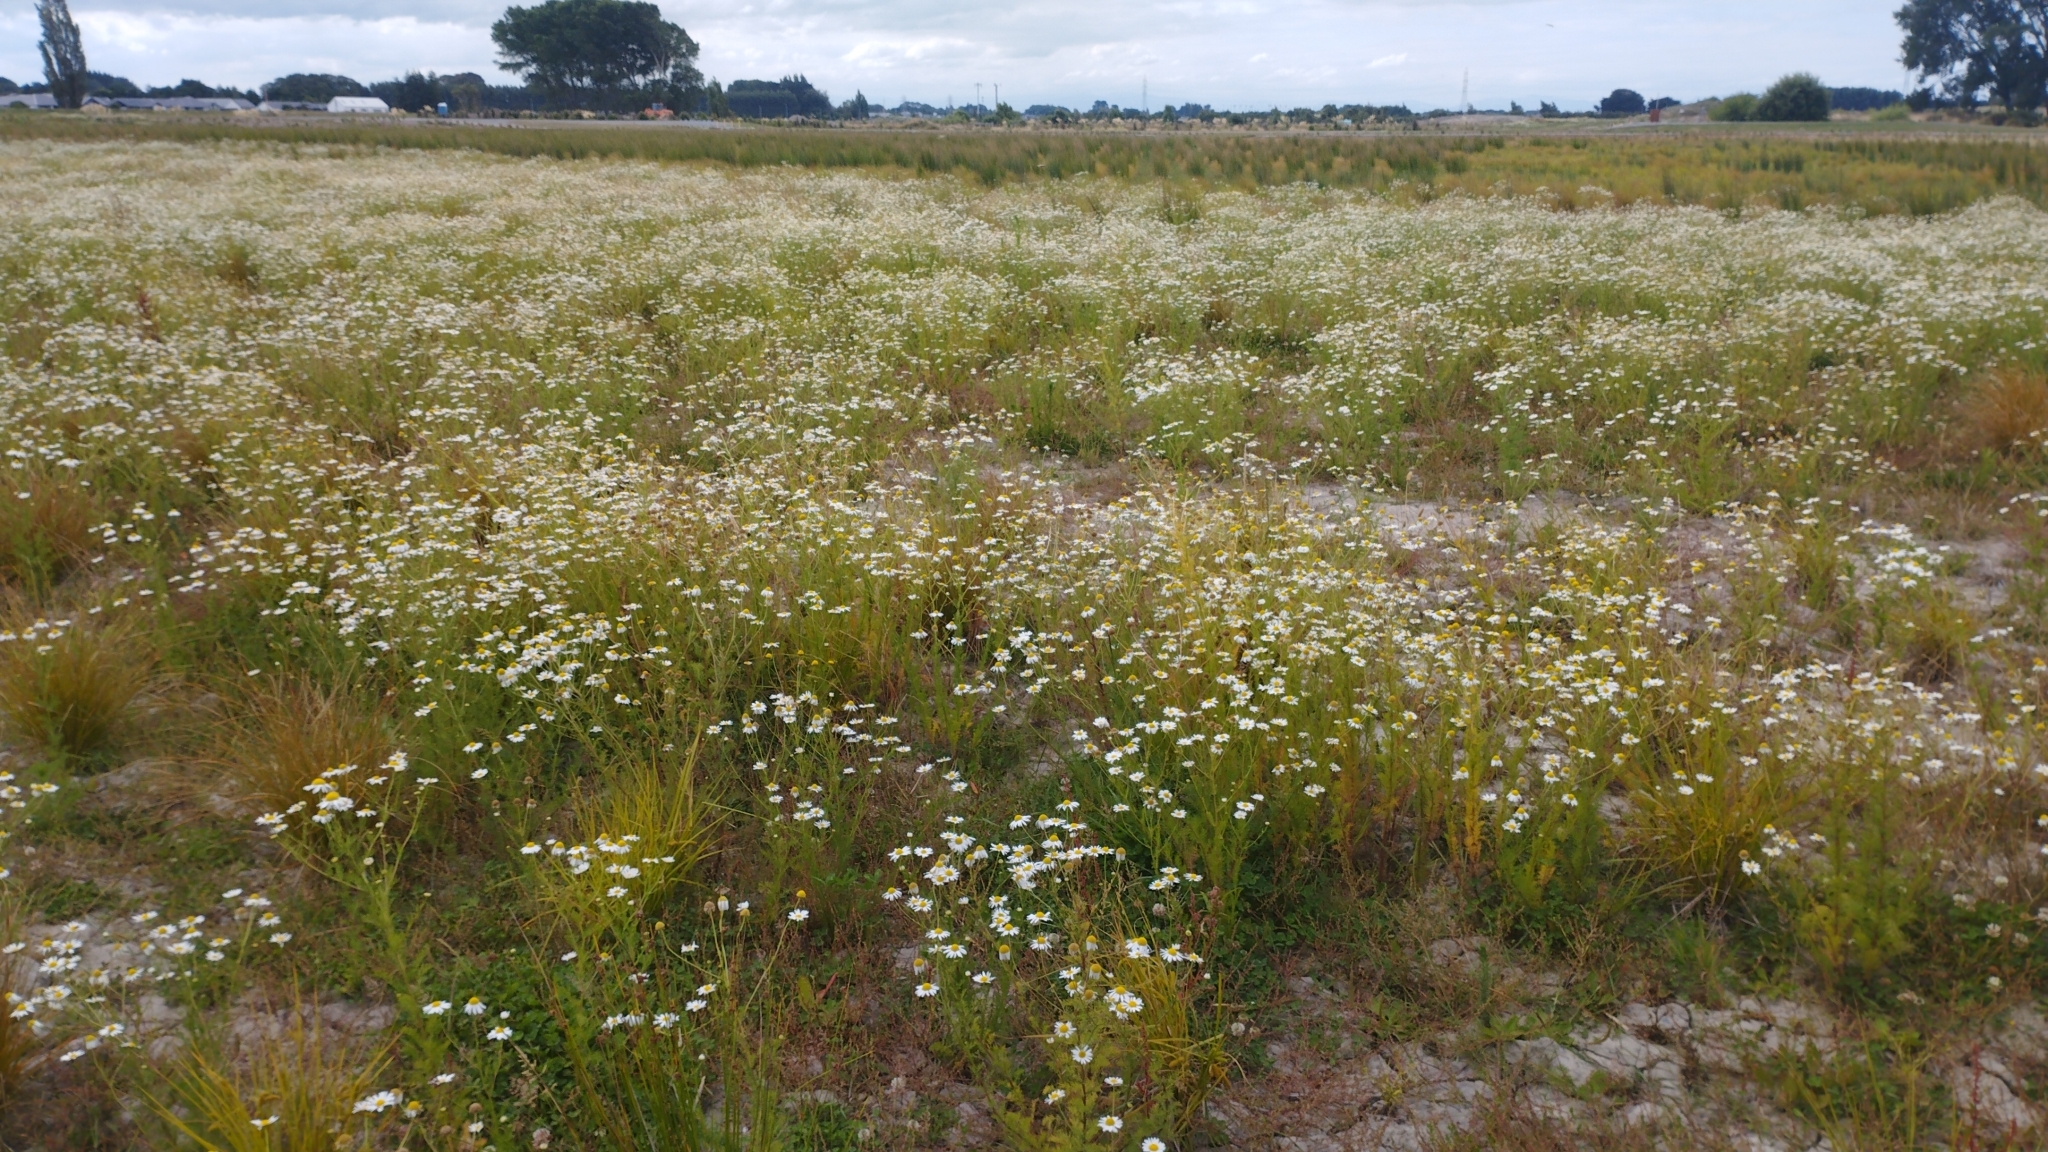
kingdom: Plantae
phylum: Tracheophyta
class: Magnoliopsida
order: Asterales
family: Asteraceae
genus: Tripleurospermum
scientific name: Tripleurospermum inodorum
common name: Scentless mayweed
